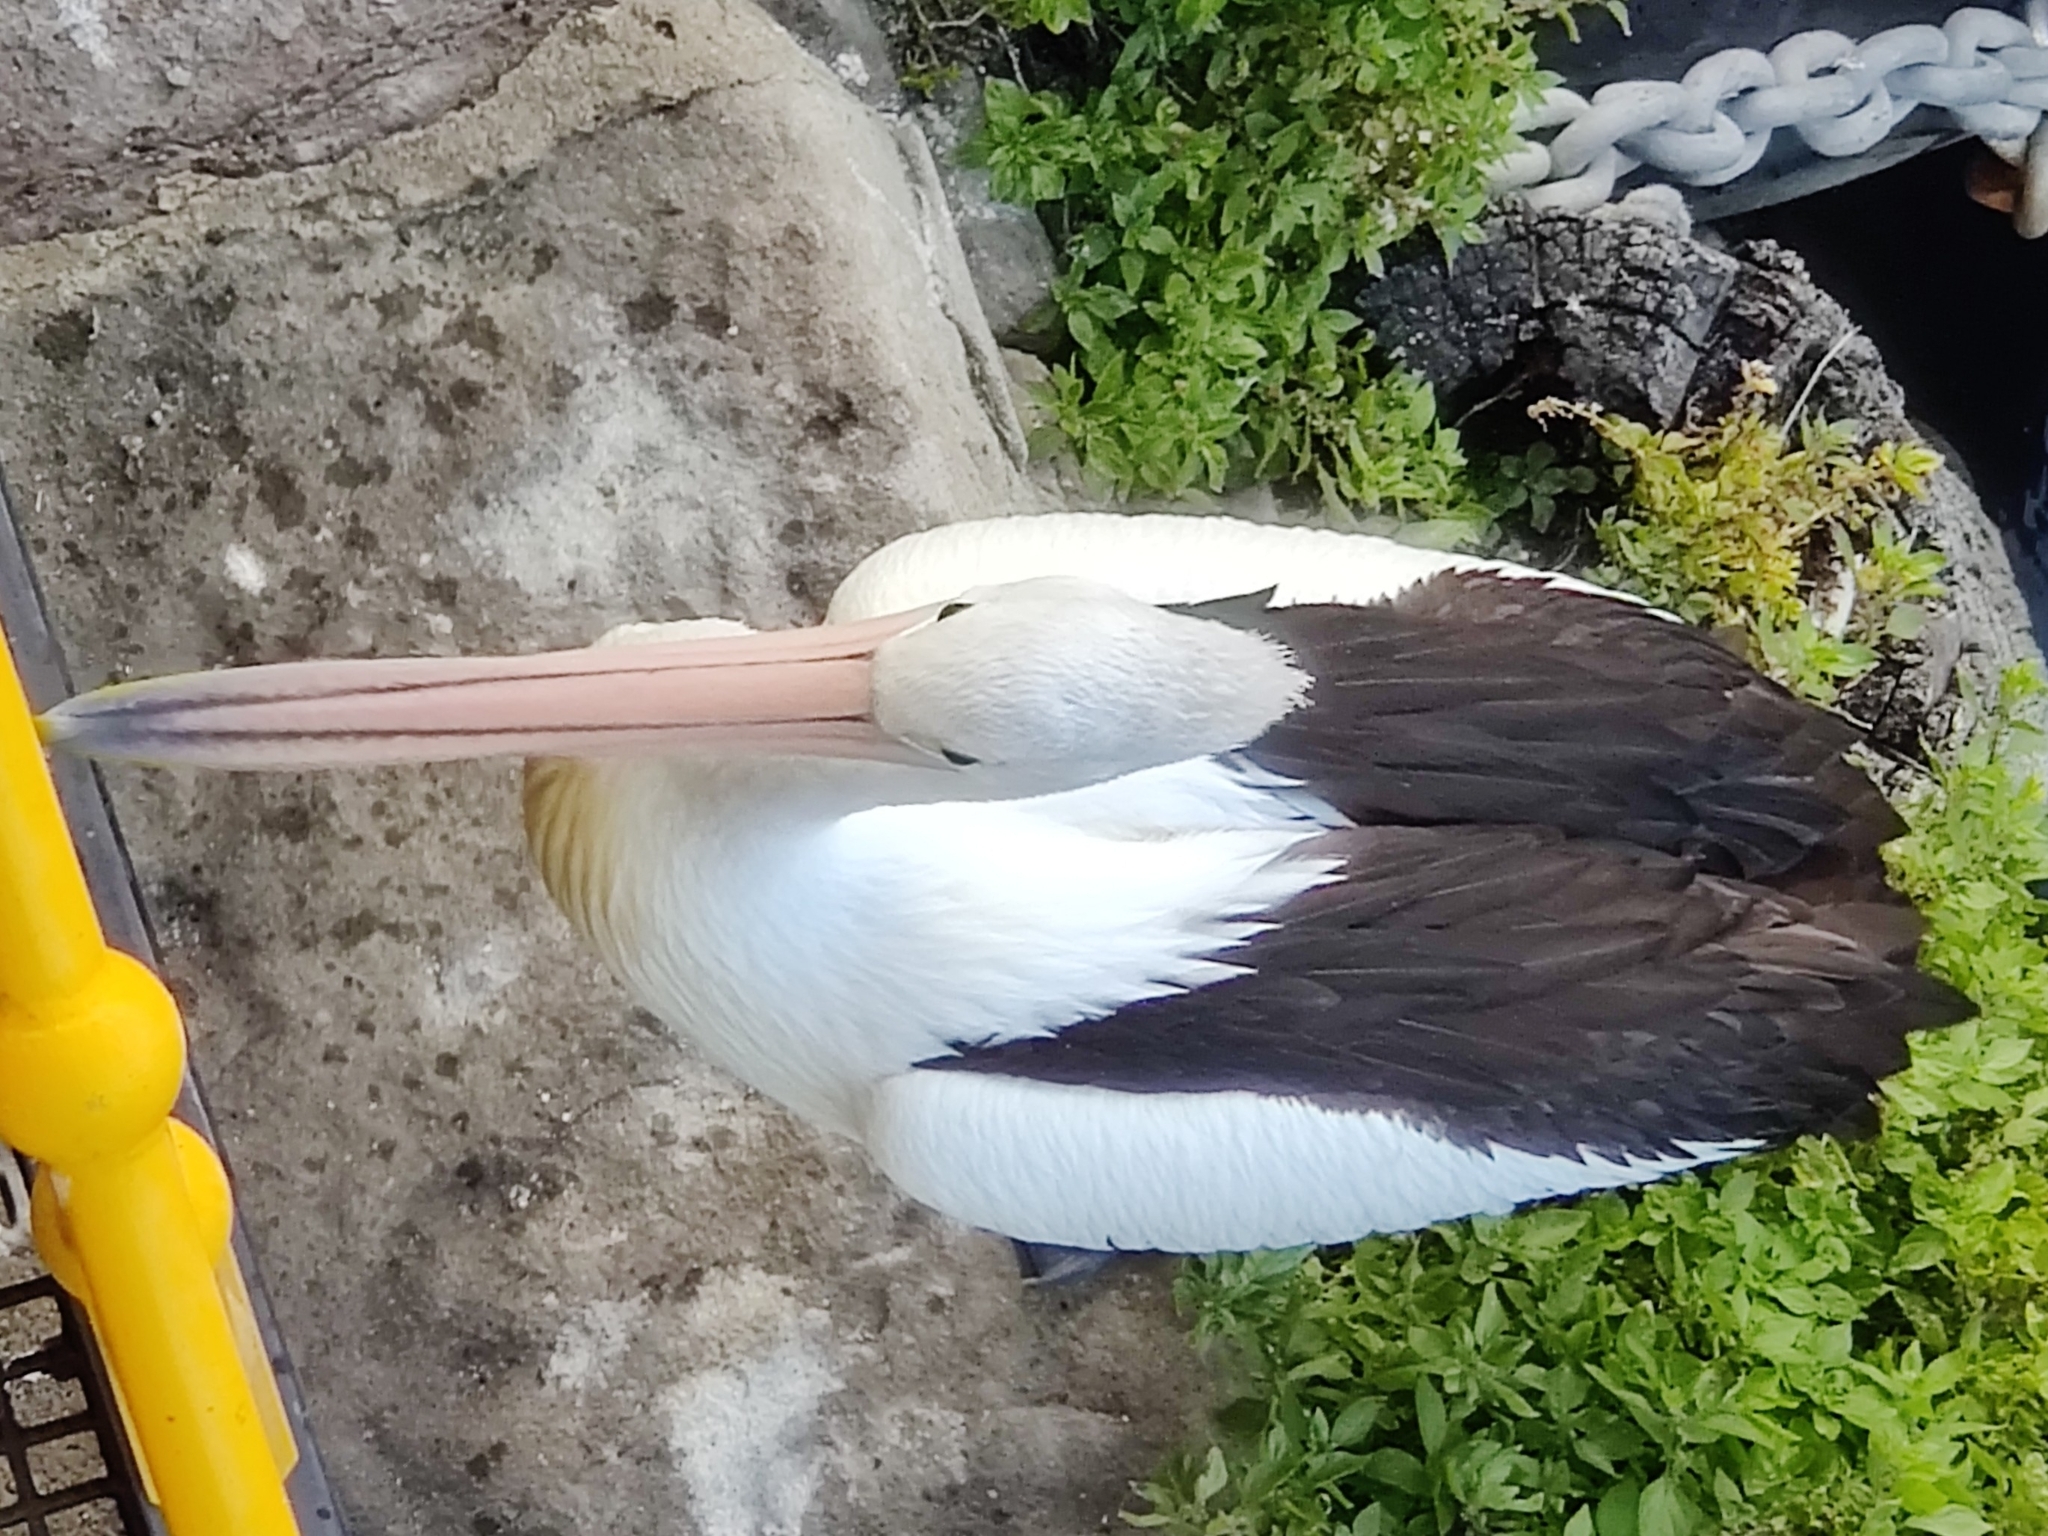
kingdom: Animalia
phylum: Chordata
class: Aves
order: Pelecaniformes
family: Pelecanidae
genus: Pelecanus
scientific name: Pelecanus conspicillatus
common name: Australian pelican
